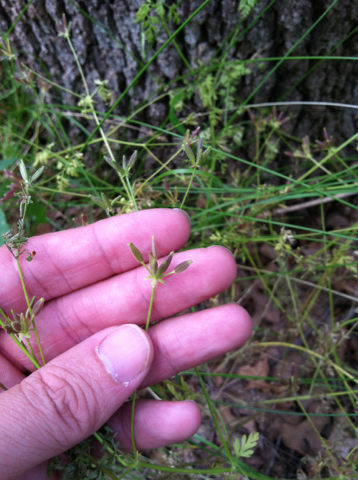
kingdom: Plantae
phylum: Tracheophyta
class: Magnoliopsida
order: Apiales
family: Apiaceae
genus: Chaerophyllum
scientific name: Chaerophyllum tainturieri
